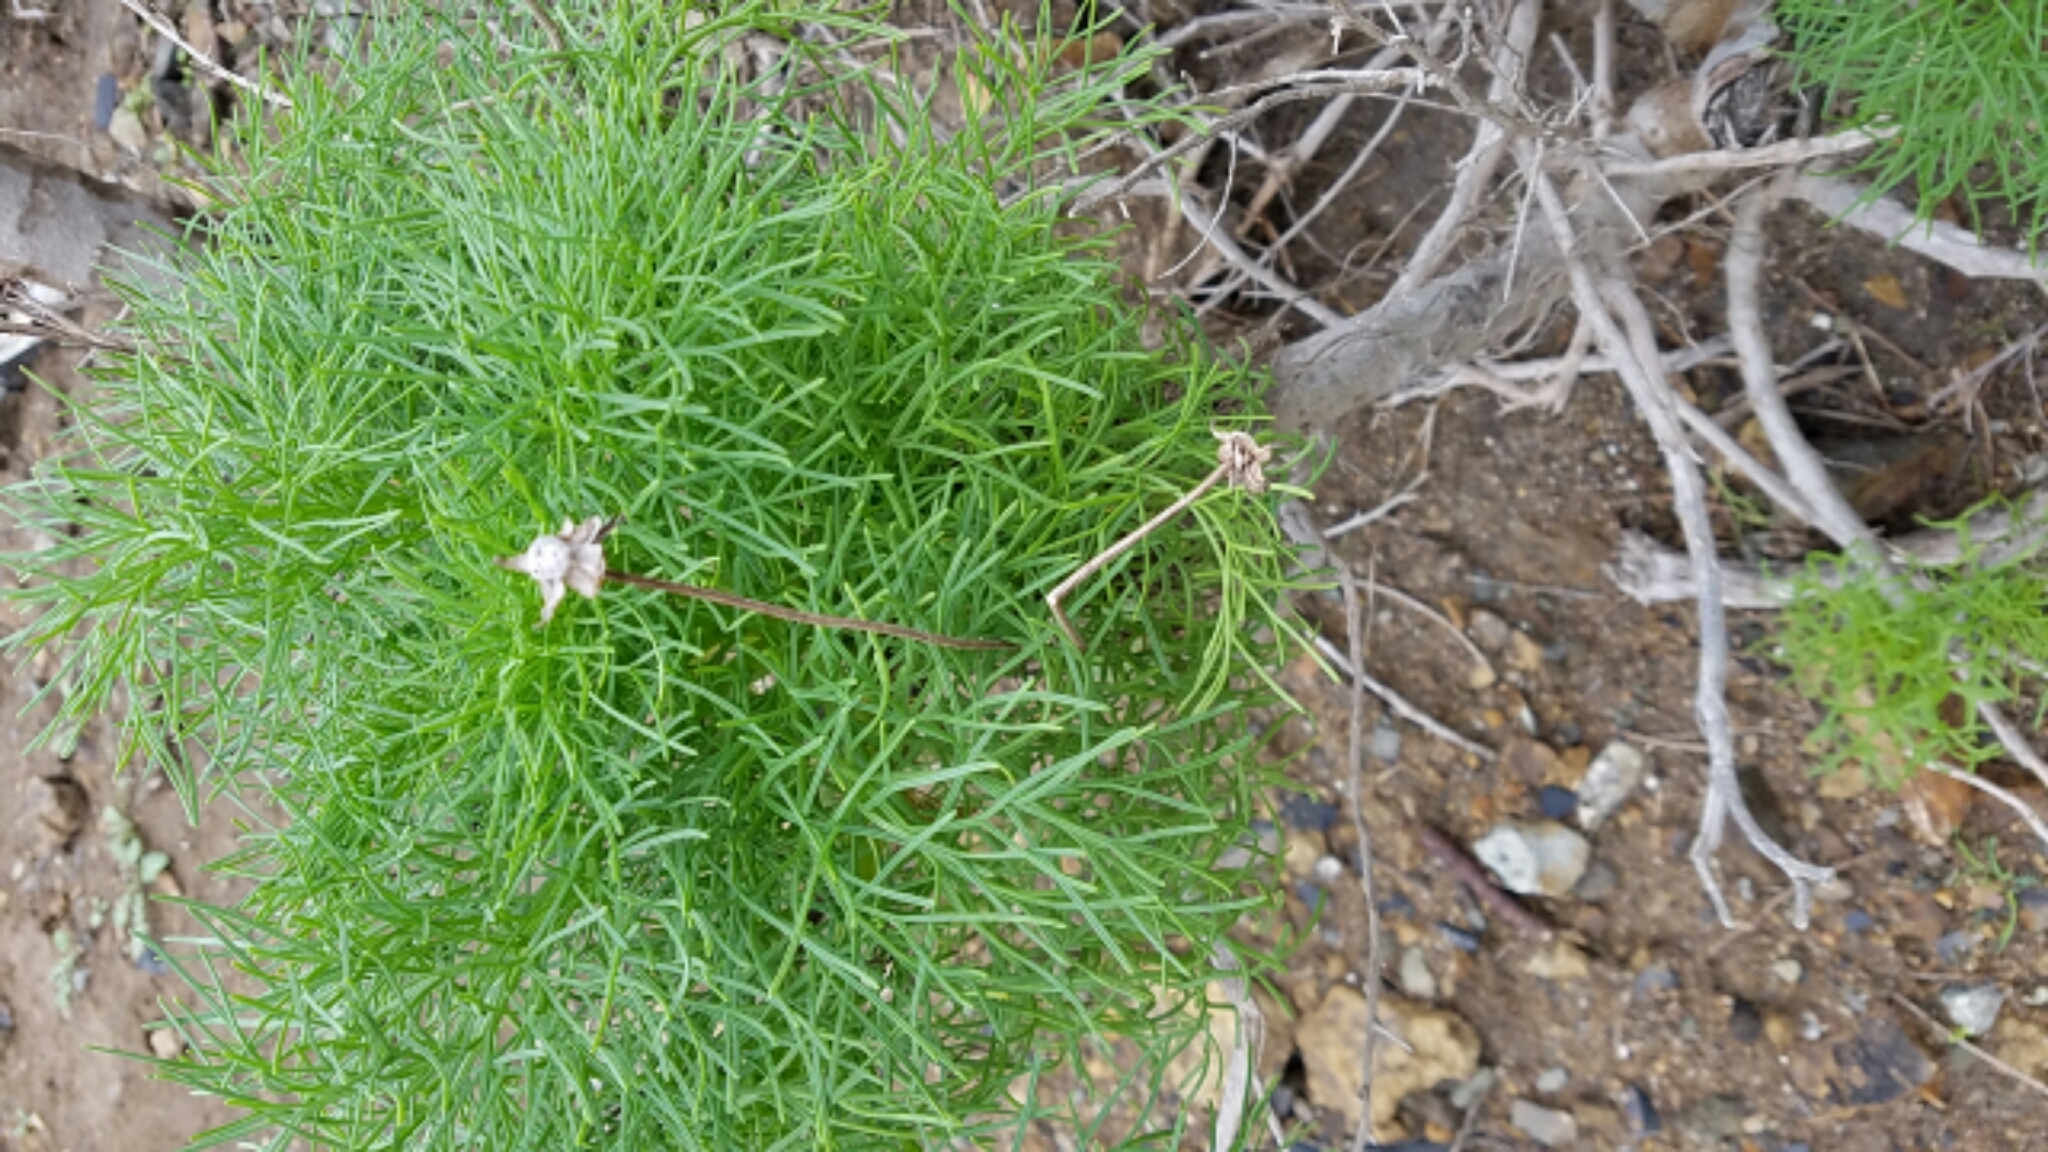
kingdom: Plantae
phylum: Tracheophyta
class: Magnoliopsida
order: Asterales
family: Asteraceae
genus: Coreopsis
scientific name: Coreopsis gigantea
